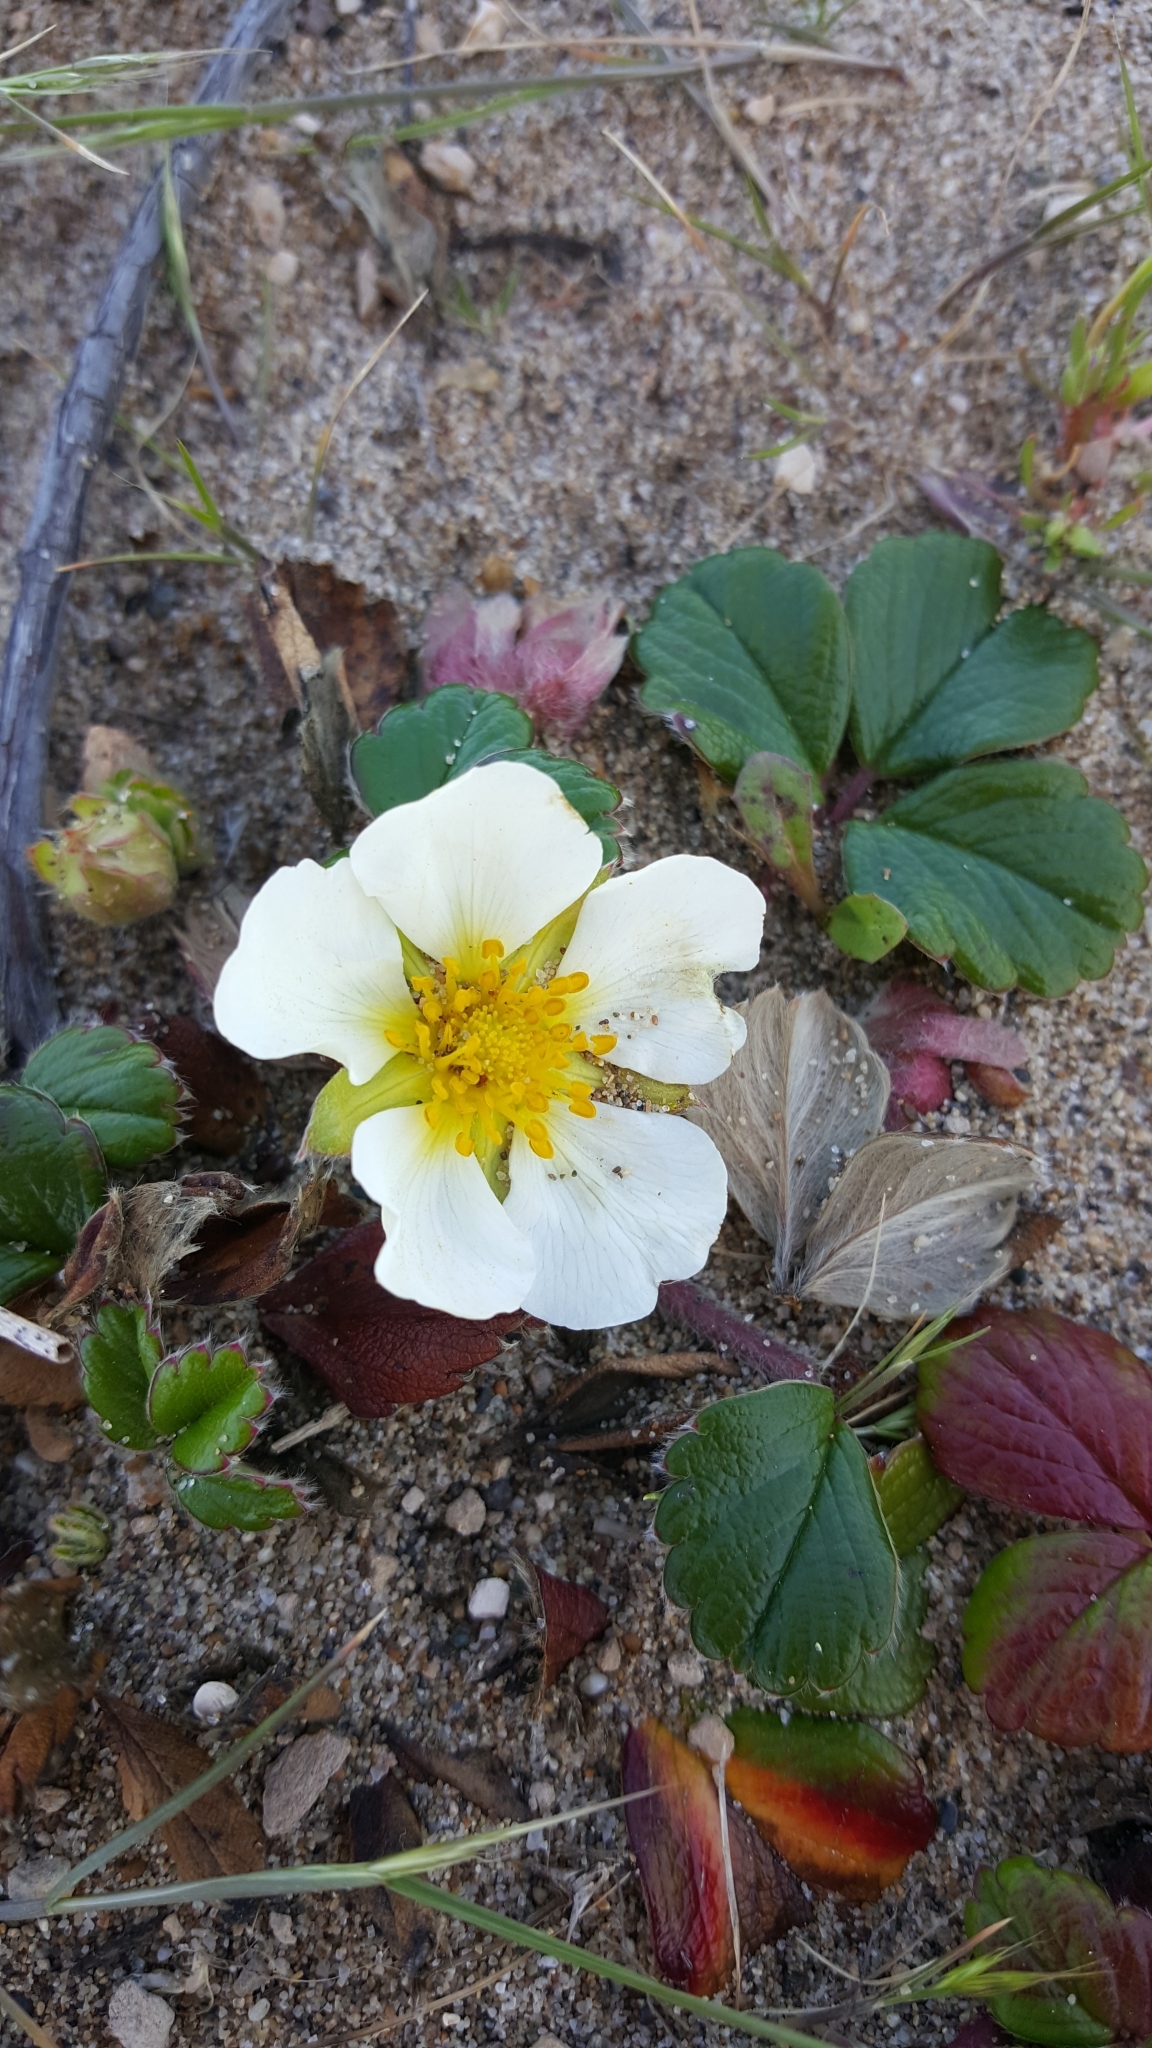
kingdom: Plantae
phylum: Tracheophyta
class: Magnoliopsida
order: Rosales
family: Rosaceae
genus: Fragaria
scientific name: Fragaria chiloensis
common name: Beach strawberry
